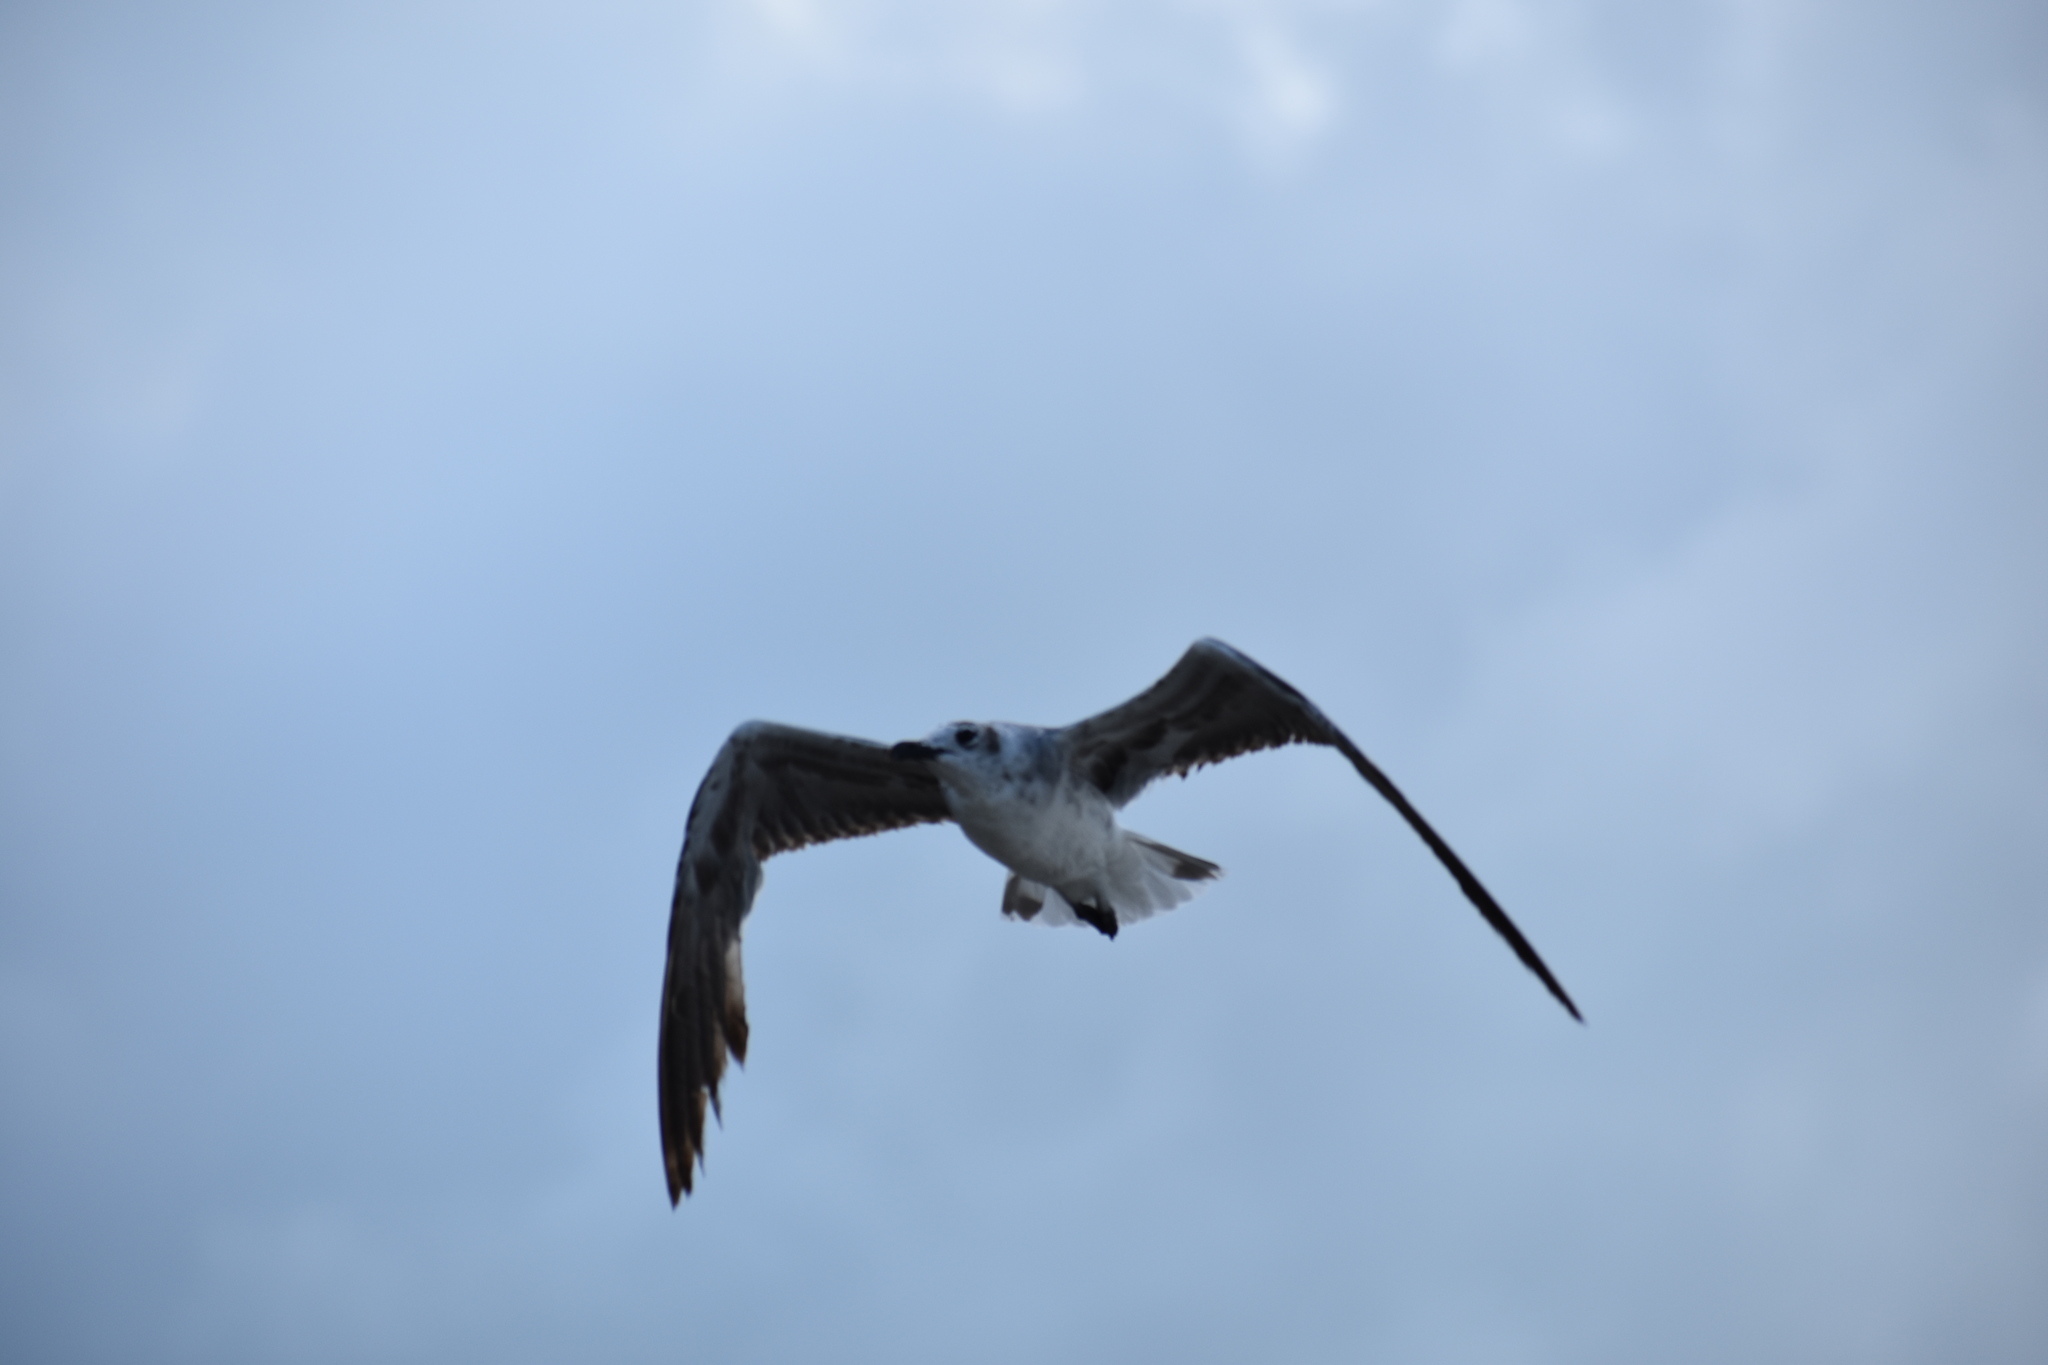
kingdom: Animalia
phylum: Chordata
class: Aves
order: Charadriiformes
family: Laridae
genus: Leucophaeus
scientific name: Leucophaeus atricilla
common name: Laughing gull
